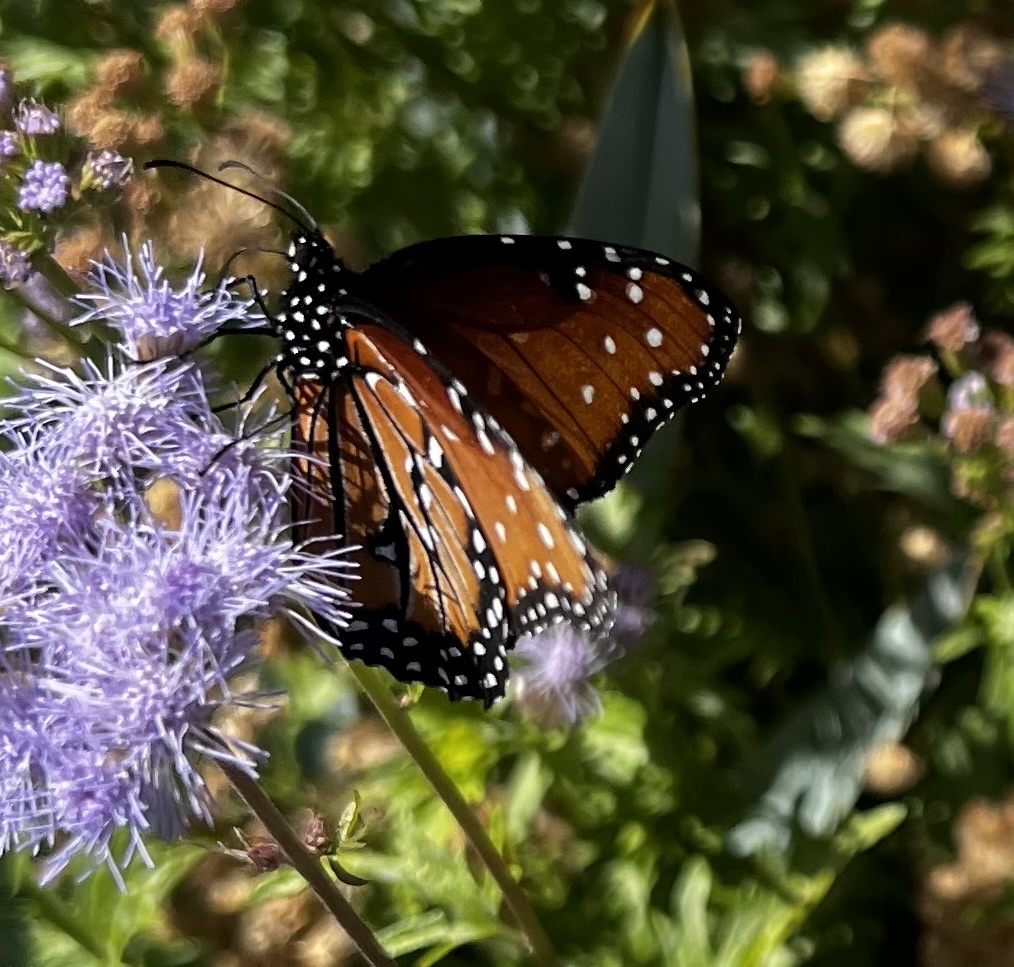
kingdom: Animalia
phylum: Arthropoda
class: Insecta
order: Lepidoptera
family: Nymphalidae
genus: Danaus
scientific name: Danaus gilippus
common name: Queen
